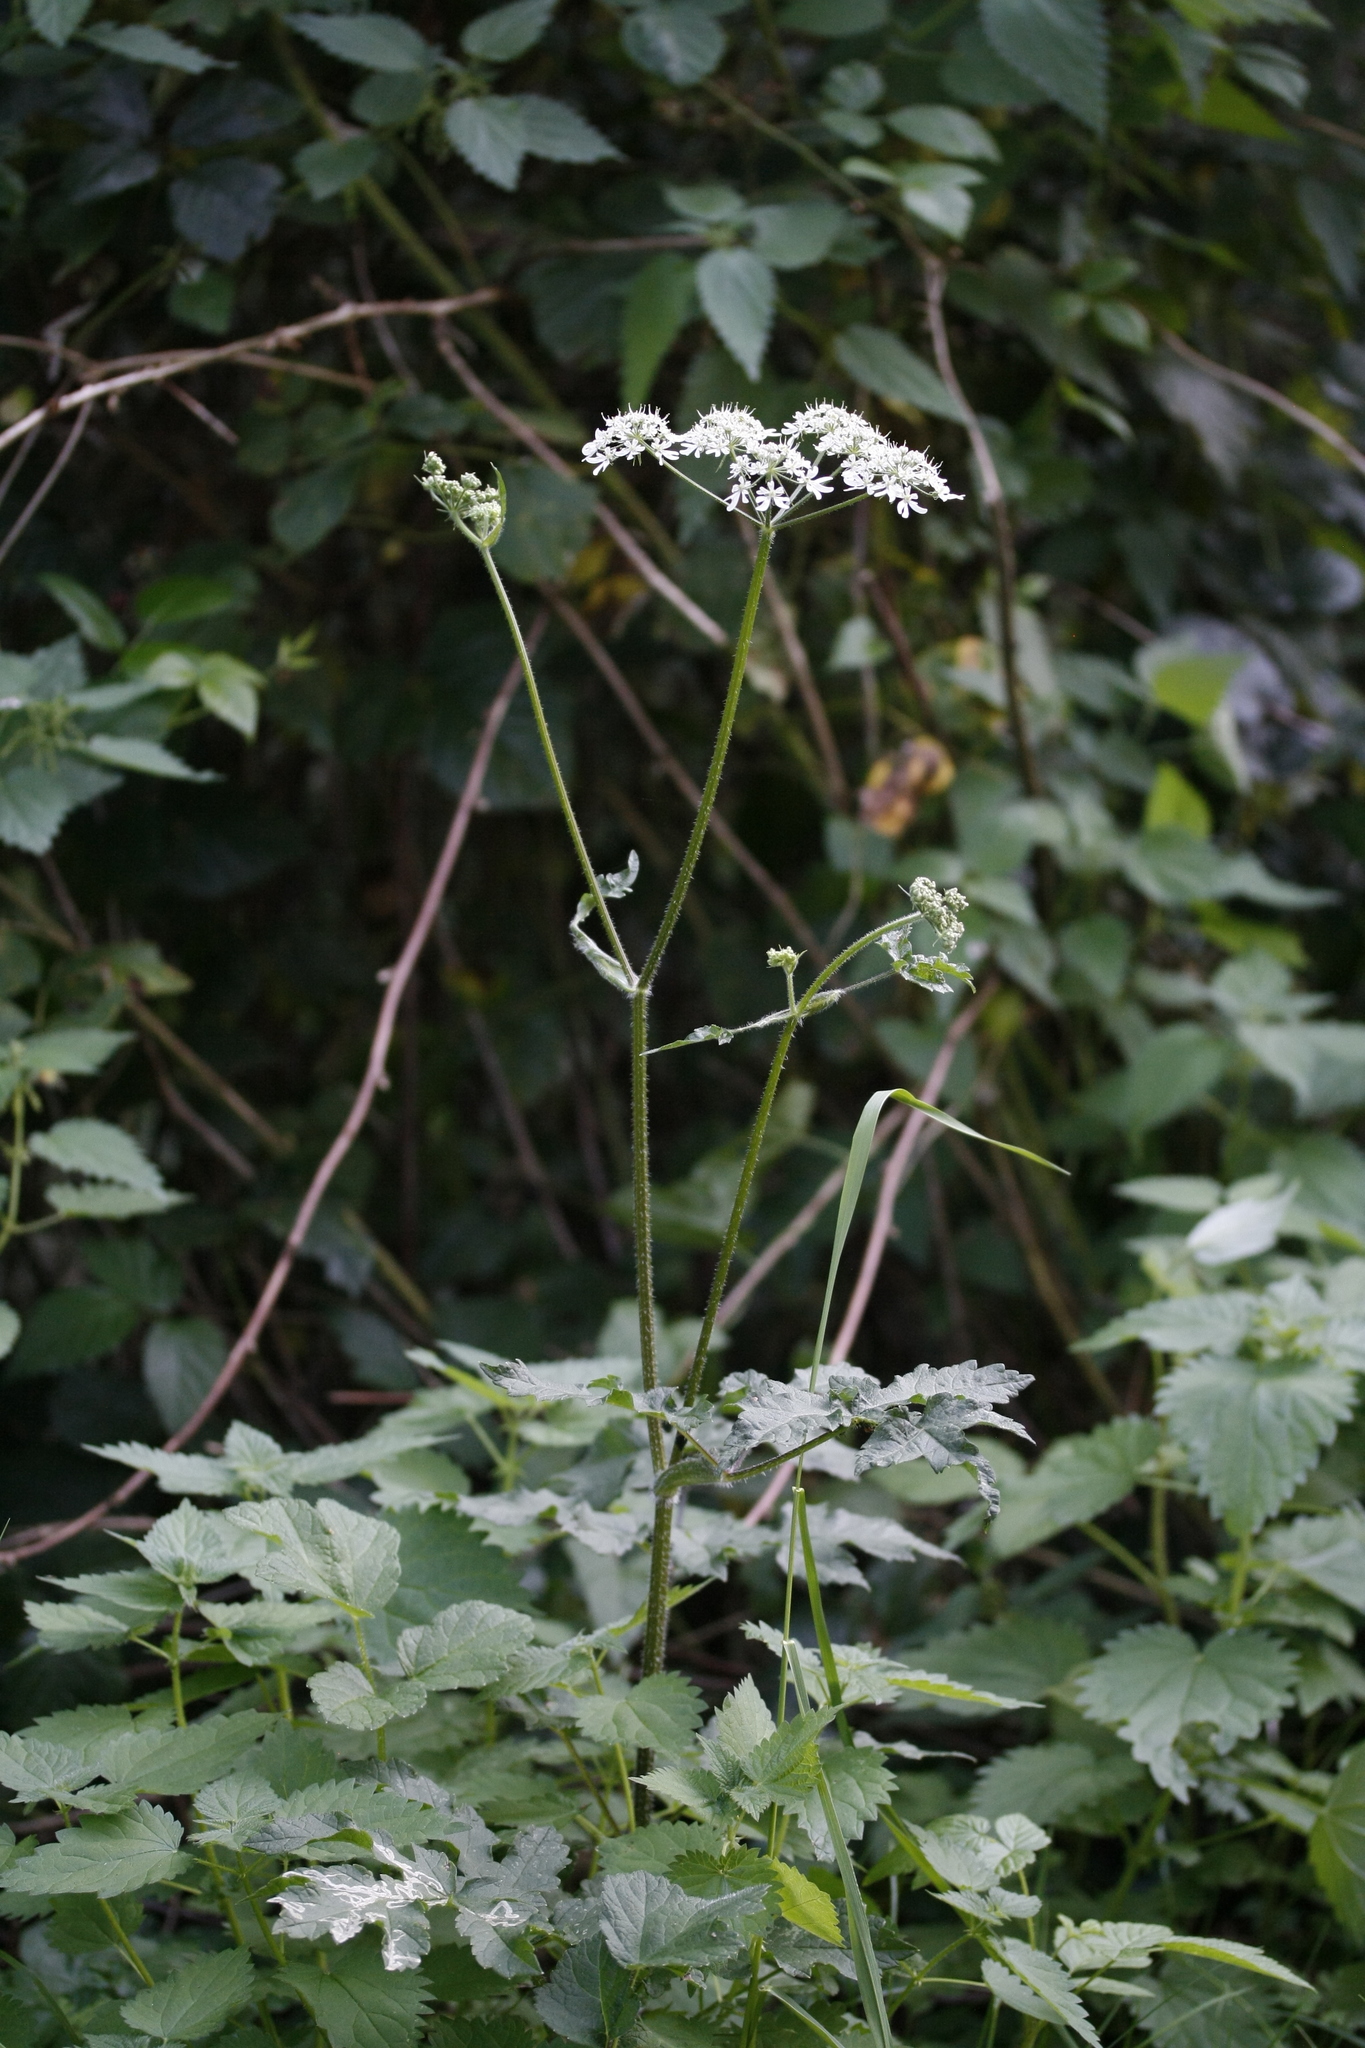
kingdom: Plantae
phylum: Tracheophyta
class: Magnoliopsida
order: Apiales
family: Apiaceae
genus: Heracleum
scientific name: Heracleum sphondylium
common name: Hogweed
